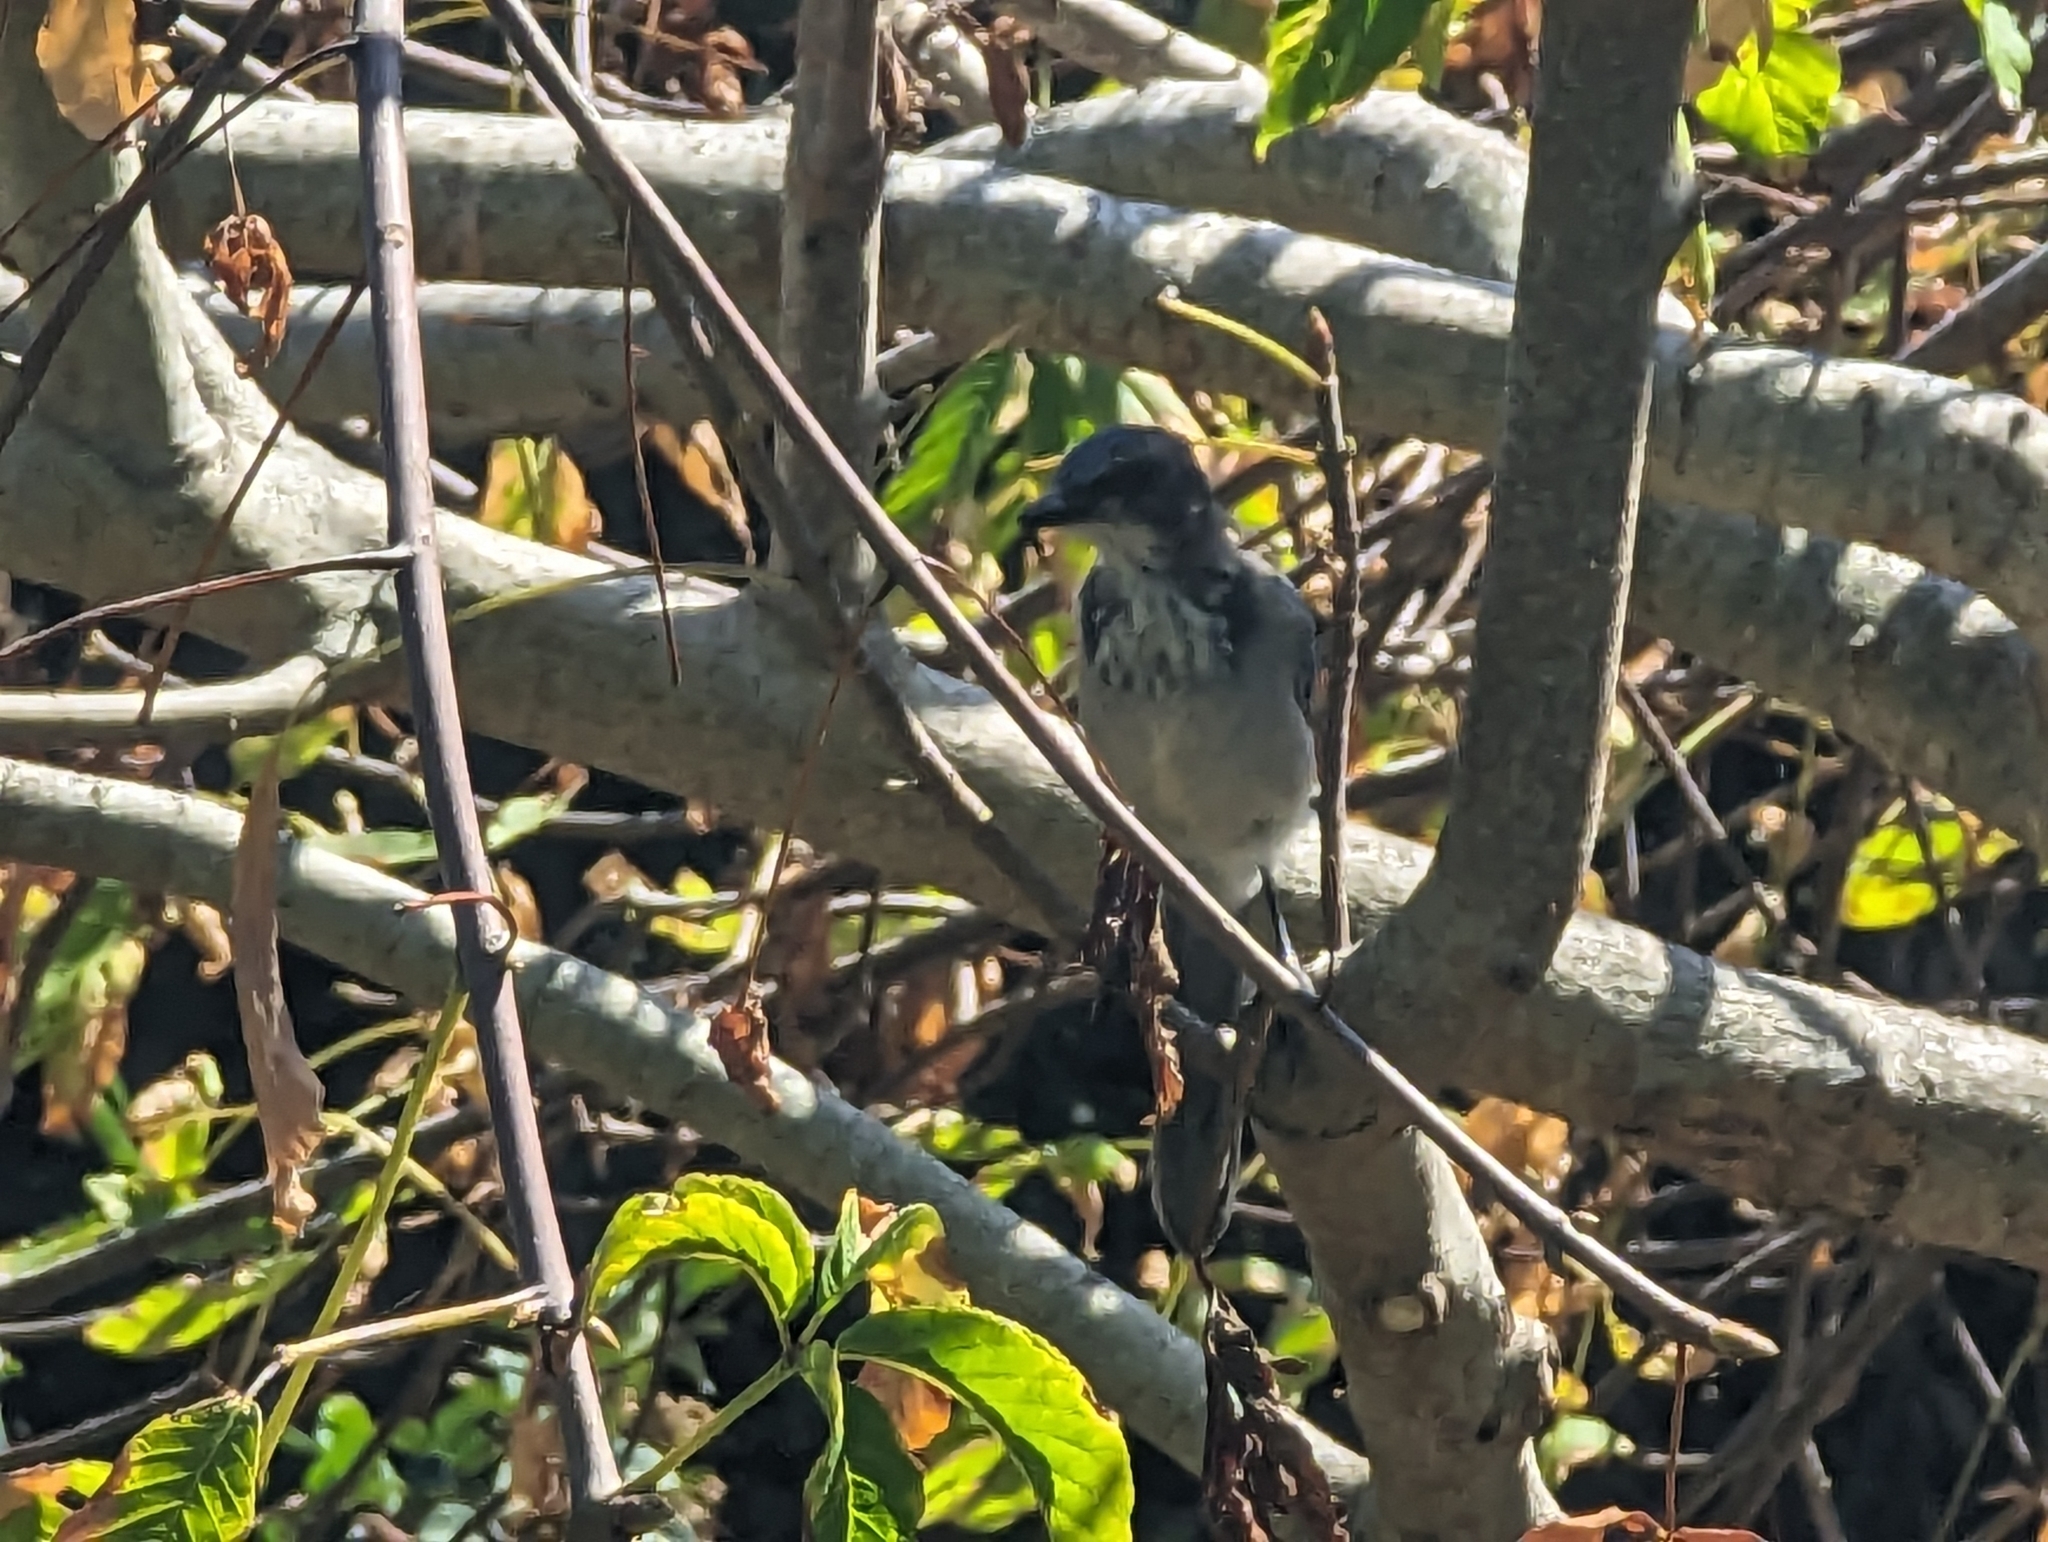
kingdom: Animalia
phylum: Chordata
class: Aves
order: Passeriformes
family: Corvidae
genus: Aphelocoma
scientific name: Aphelocoma californica
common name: California scrub-jay
